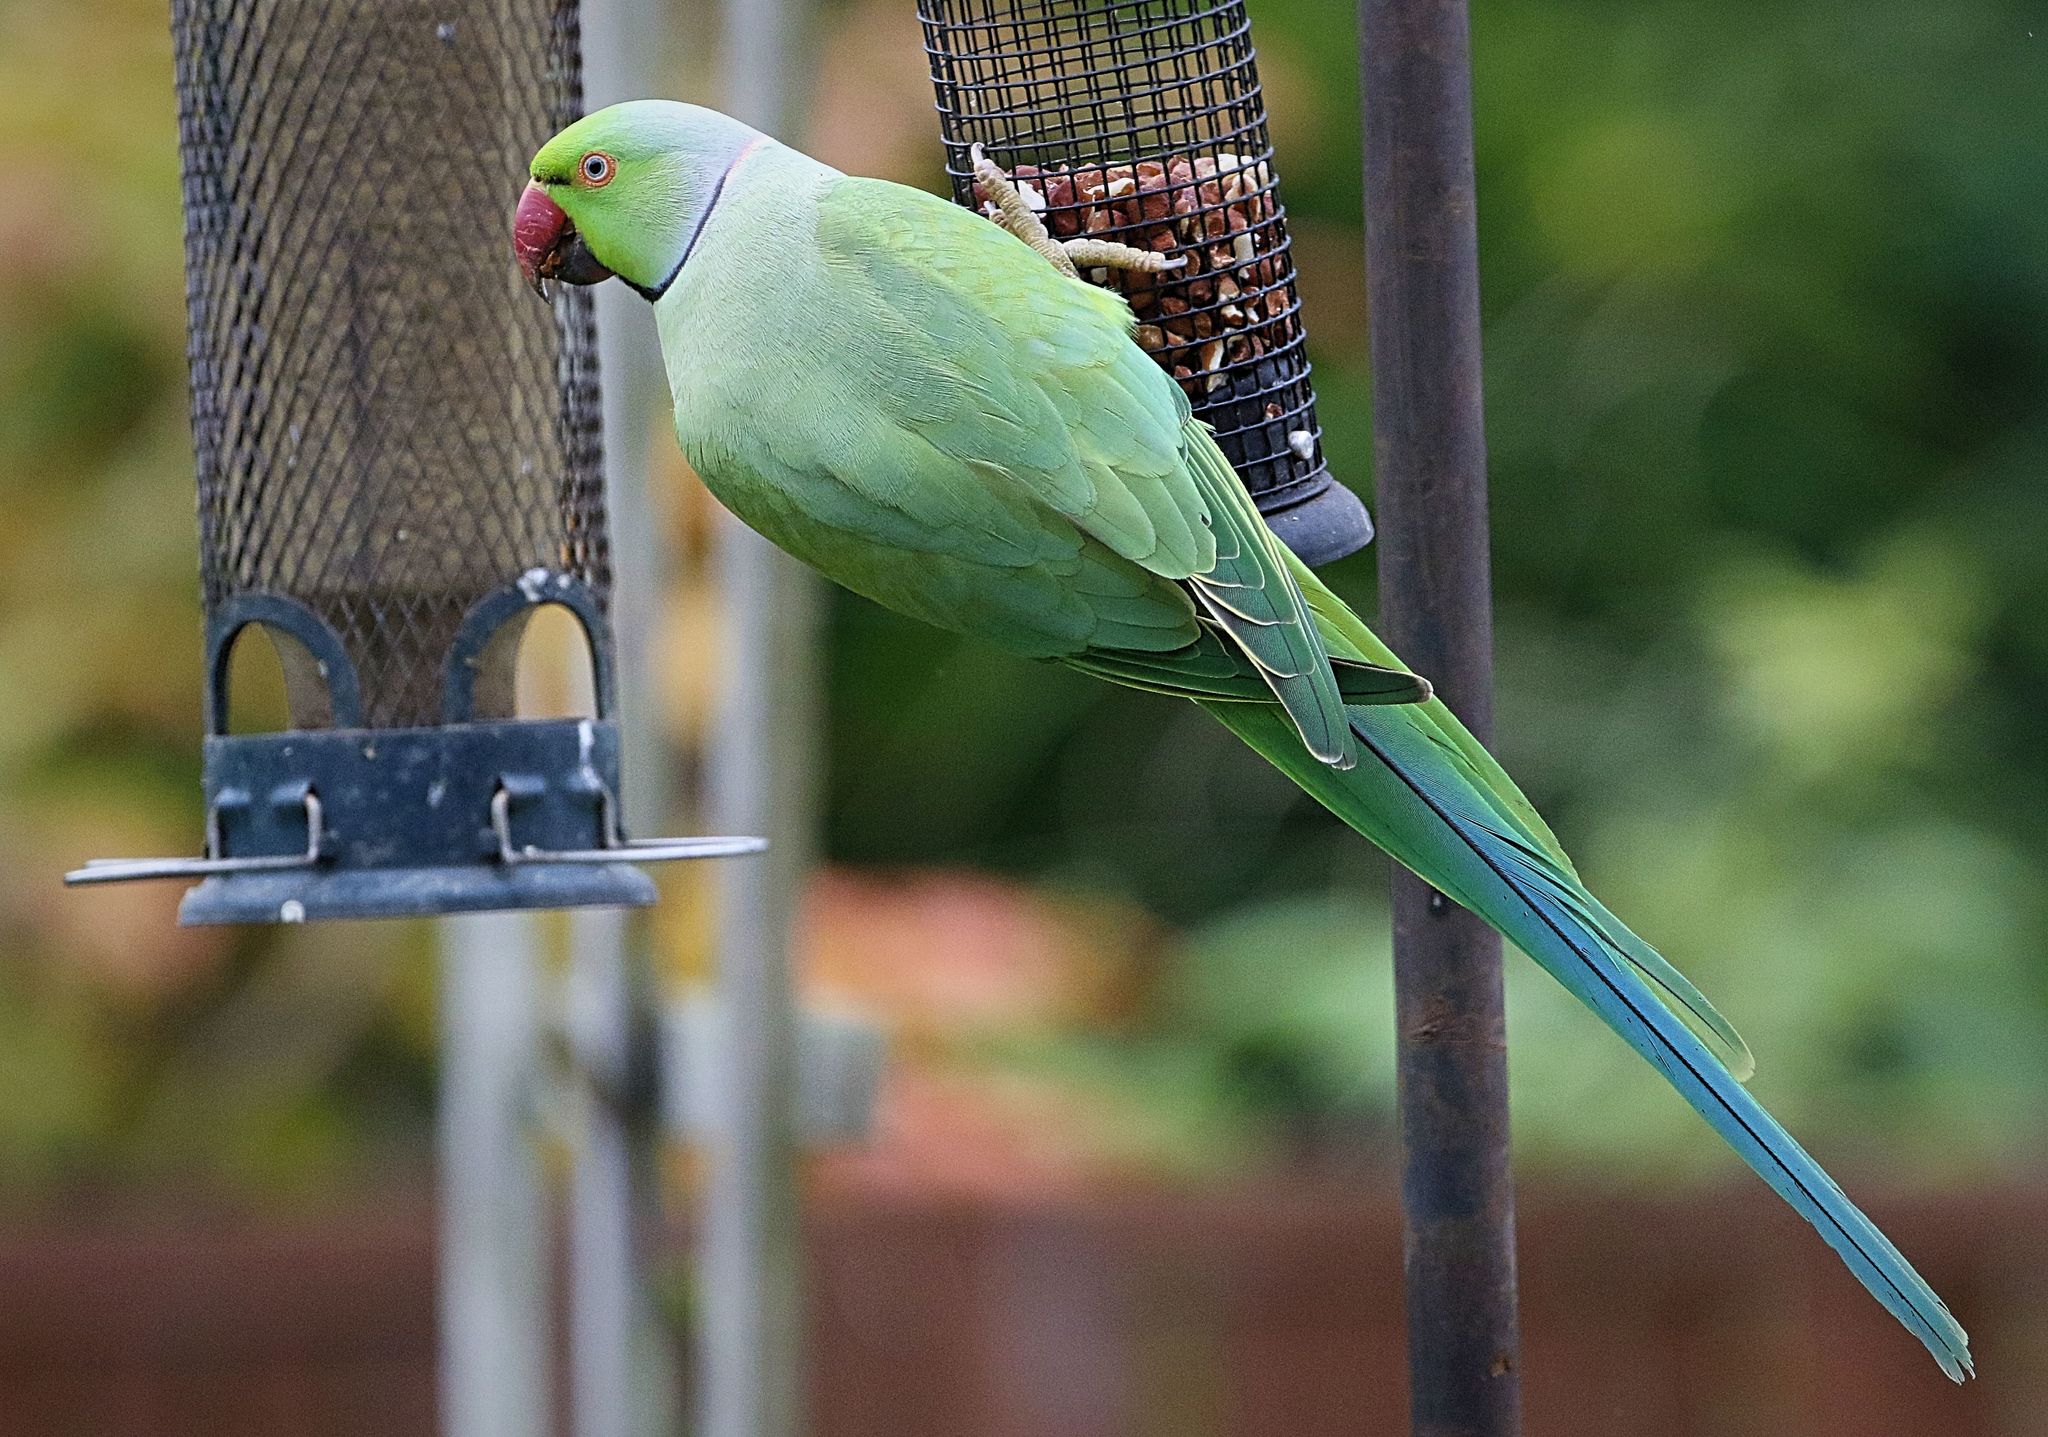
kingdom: Animalia
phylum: Chordata
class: Aves
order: Psittaciformes
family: Psittacidae
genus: Psittacula
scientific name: Psittacula krameri
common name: Rose-ringed parakeet
